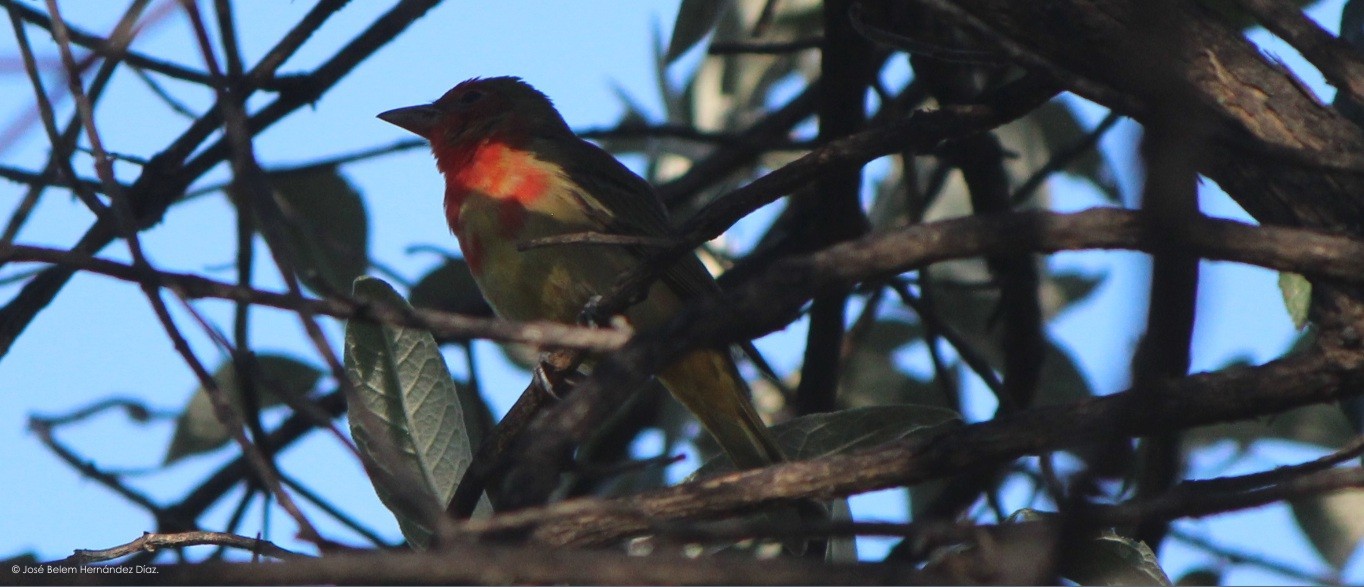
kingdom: Animalia
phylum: Chordata
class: Aves
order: Passeriformes
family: Cardinalidae
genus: Piranga
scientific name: Piranga rubra
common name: Summer tanager
